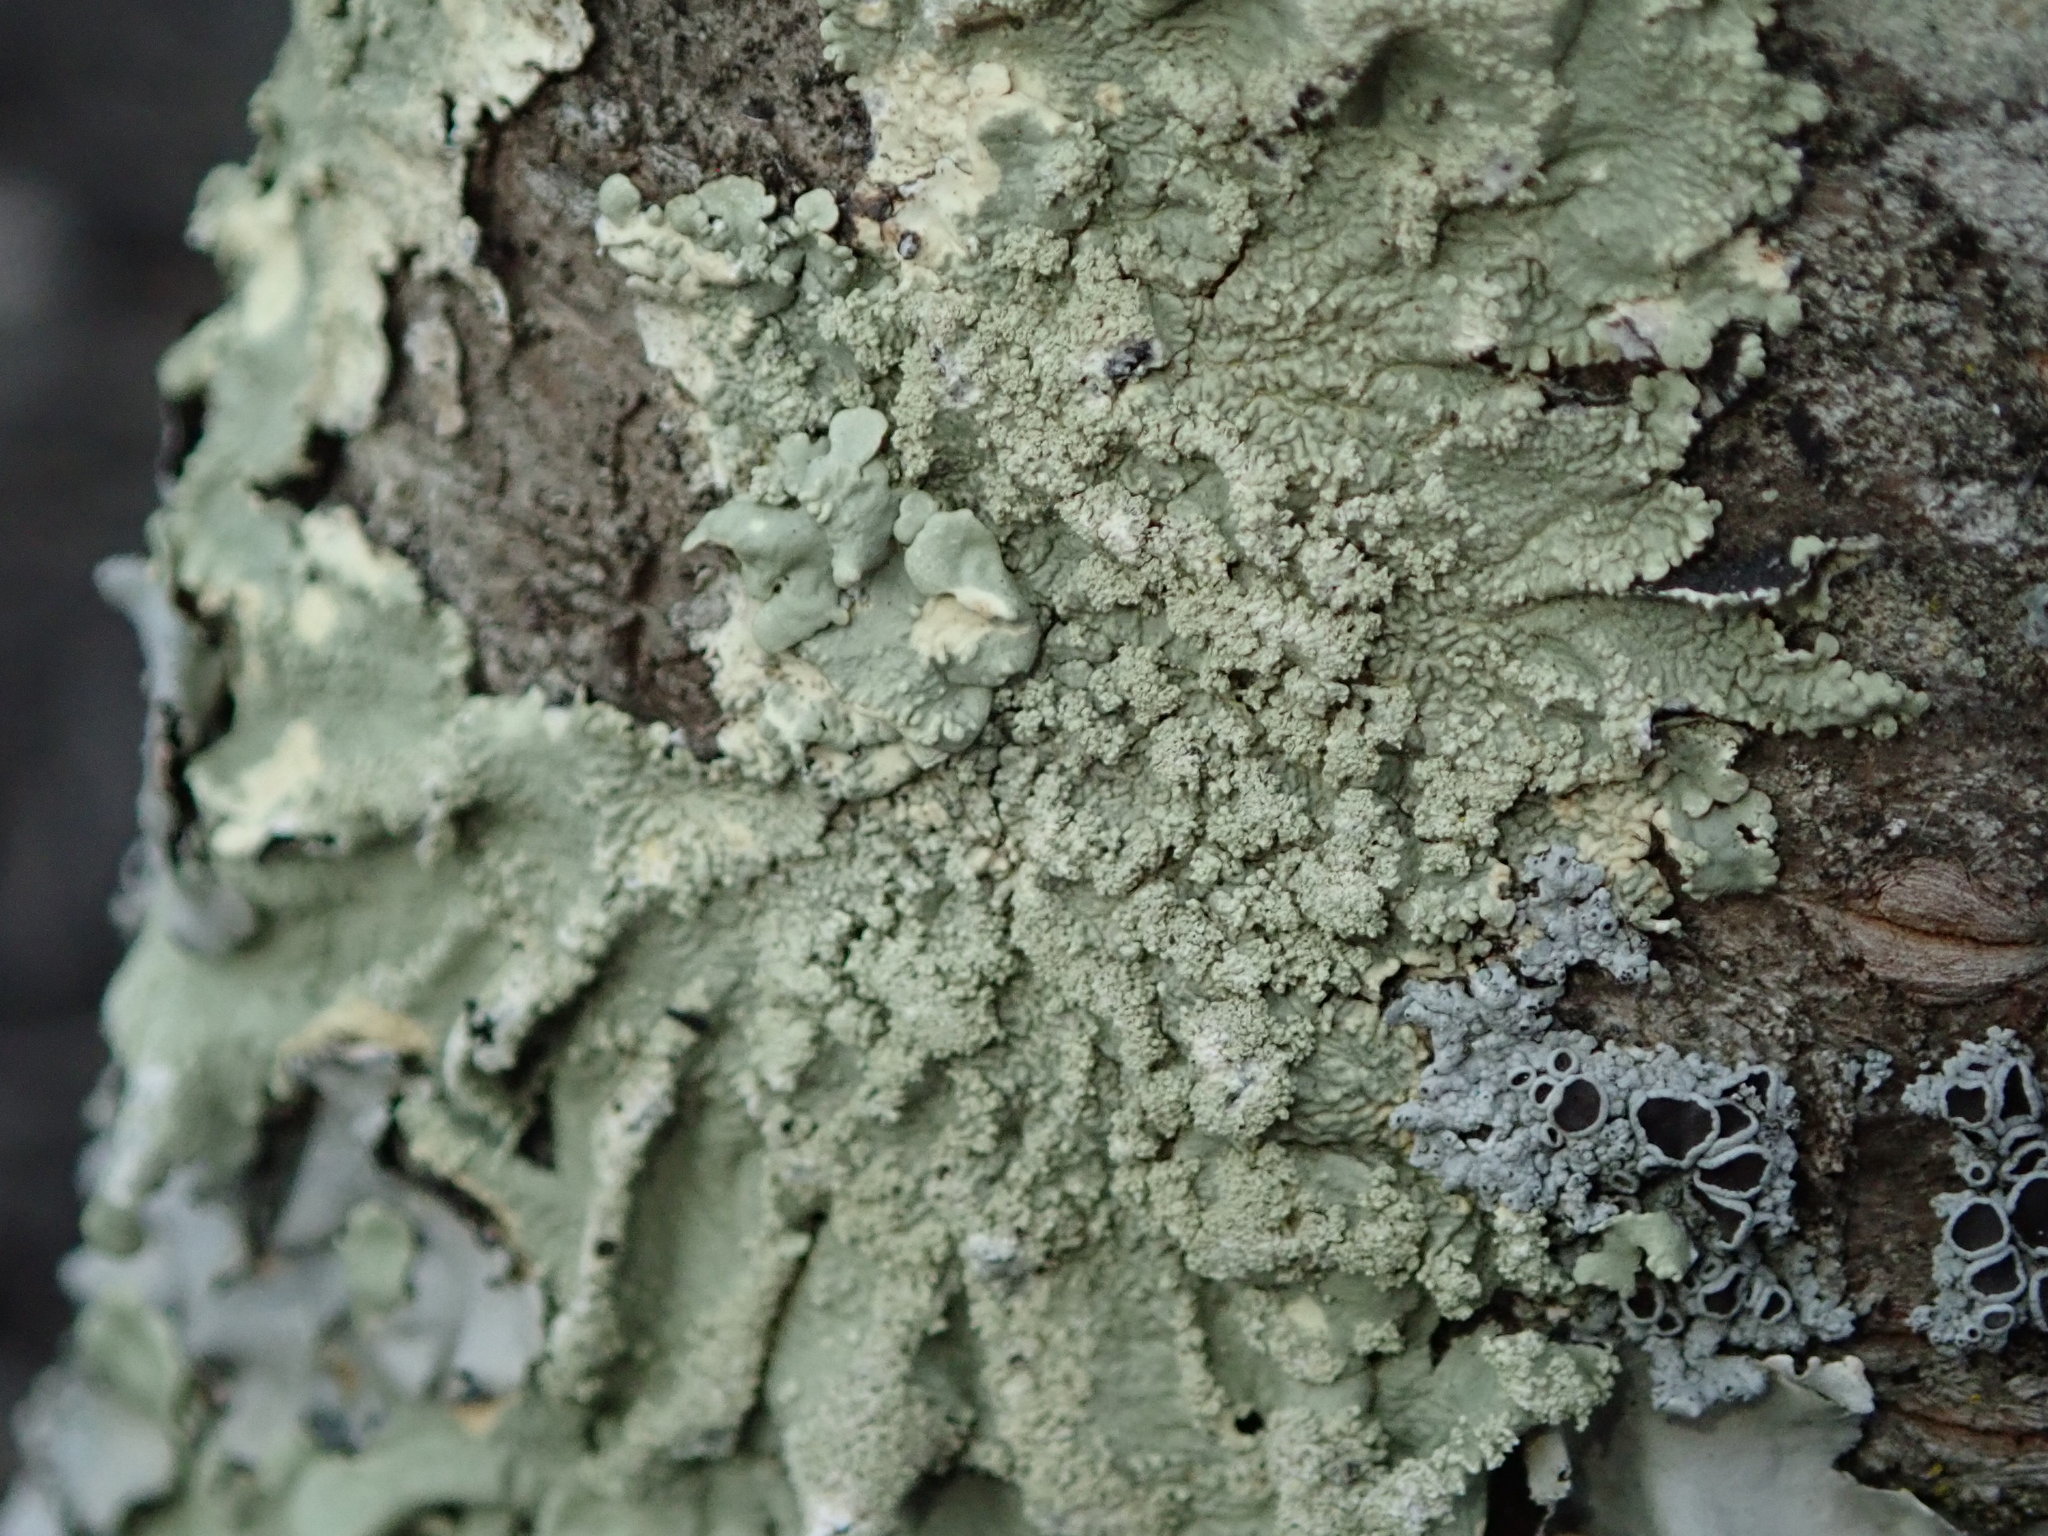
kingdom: Fungi
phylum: Ascomycota
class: Lecanoromycetes
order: Lecanorales
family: Parmeliaceae
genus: Flavoparmelia
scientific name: Flavoparmelia caperata
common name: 40-mile per hour lichen
